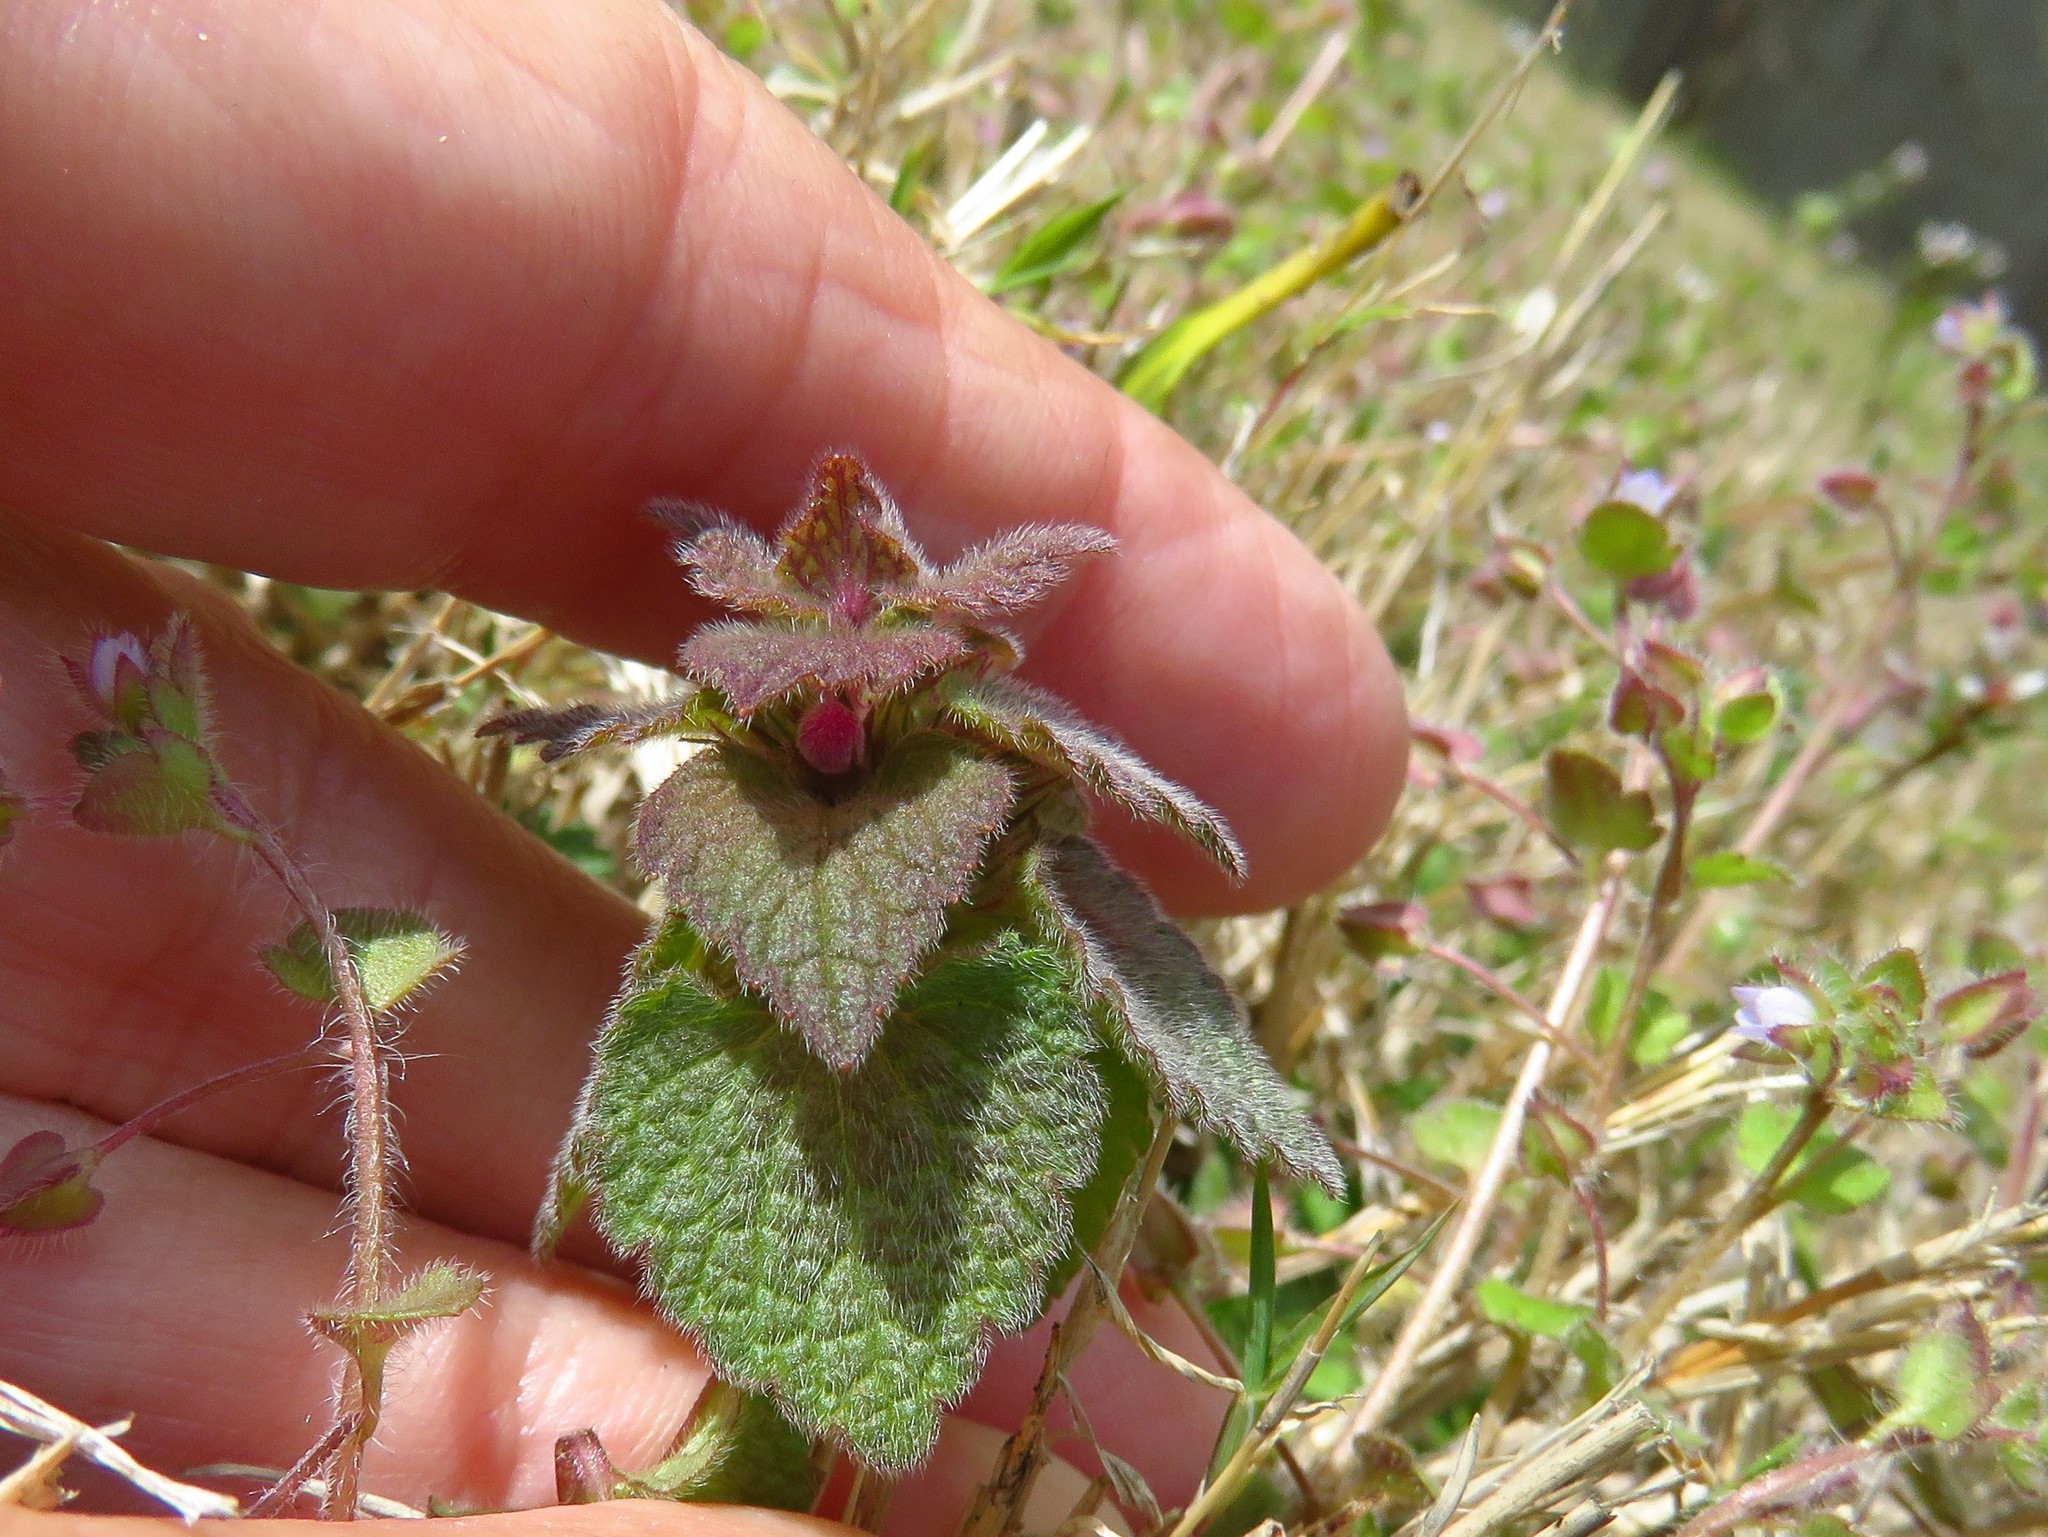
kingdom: Plantae
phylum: Tracheophyta
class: Magnoliopsida
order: Lamiales
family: Lamiaceae
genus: Lamium
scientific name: Lamium purpureum
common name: Red dead-nettle
